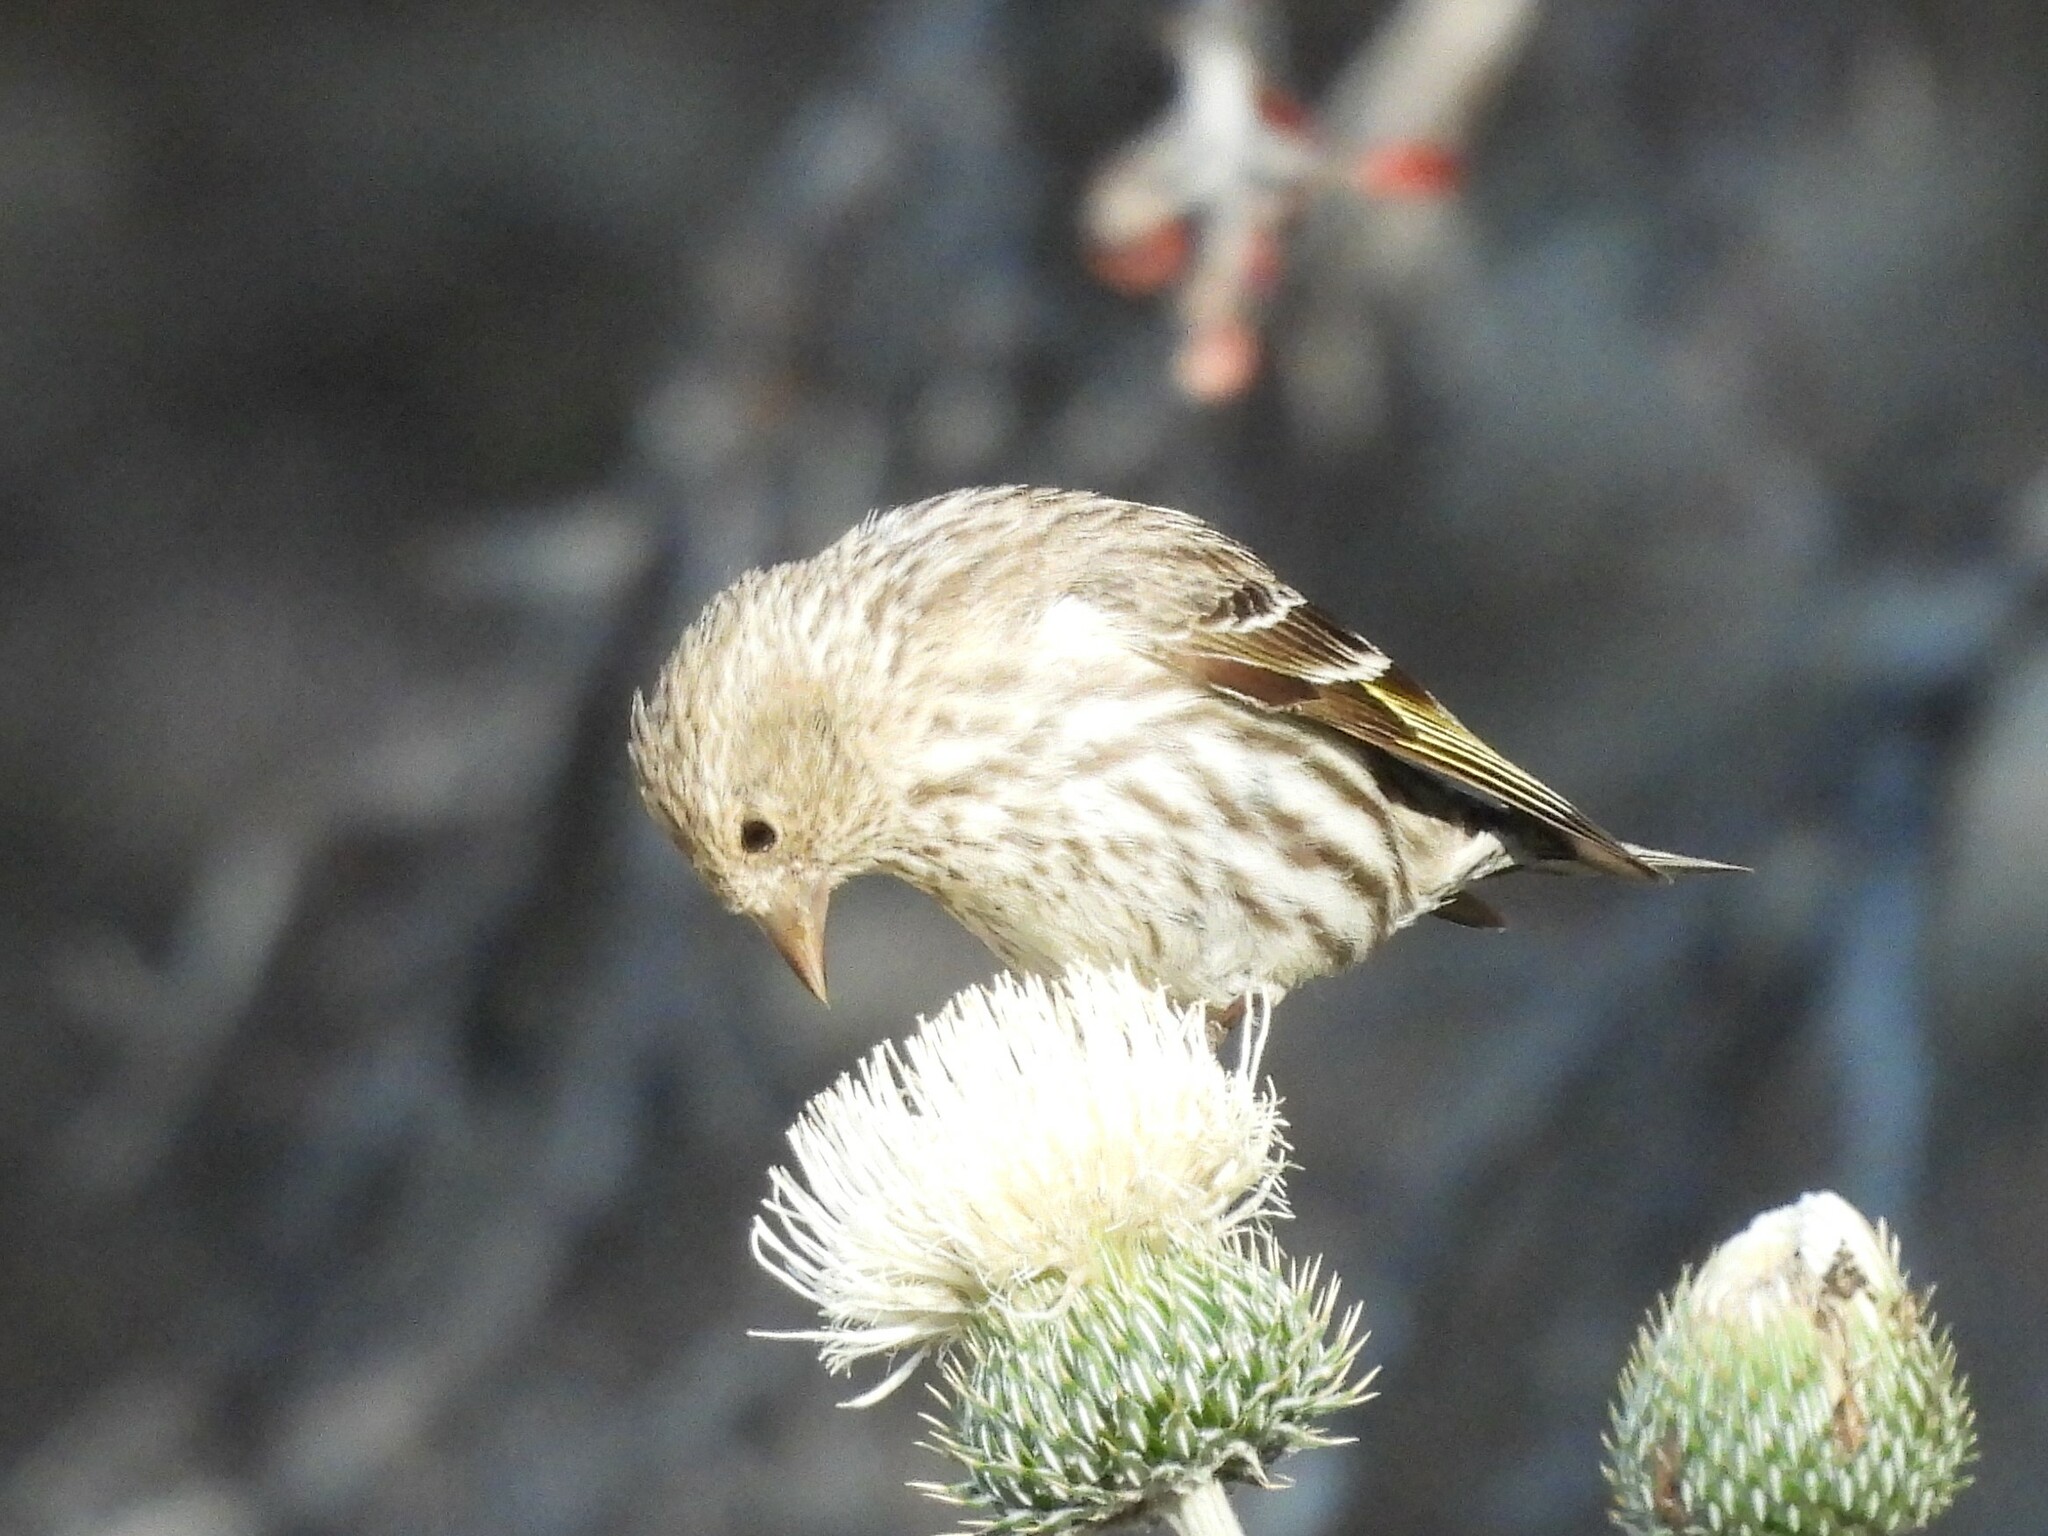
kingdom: Animalia
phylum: Chordata
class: Aves
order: Passeriformes
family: Fringillidae
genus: Spinus
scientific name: Spinus pinus
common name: Pine siskin
